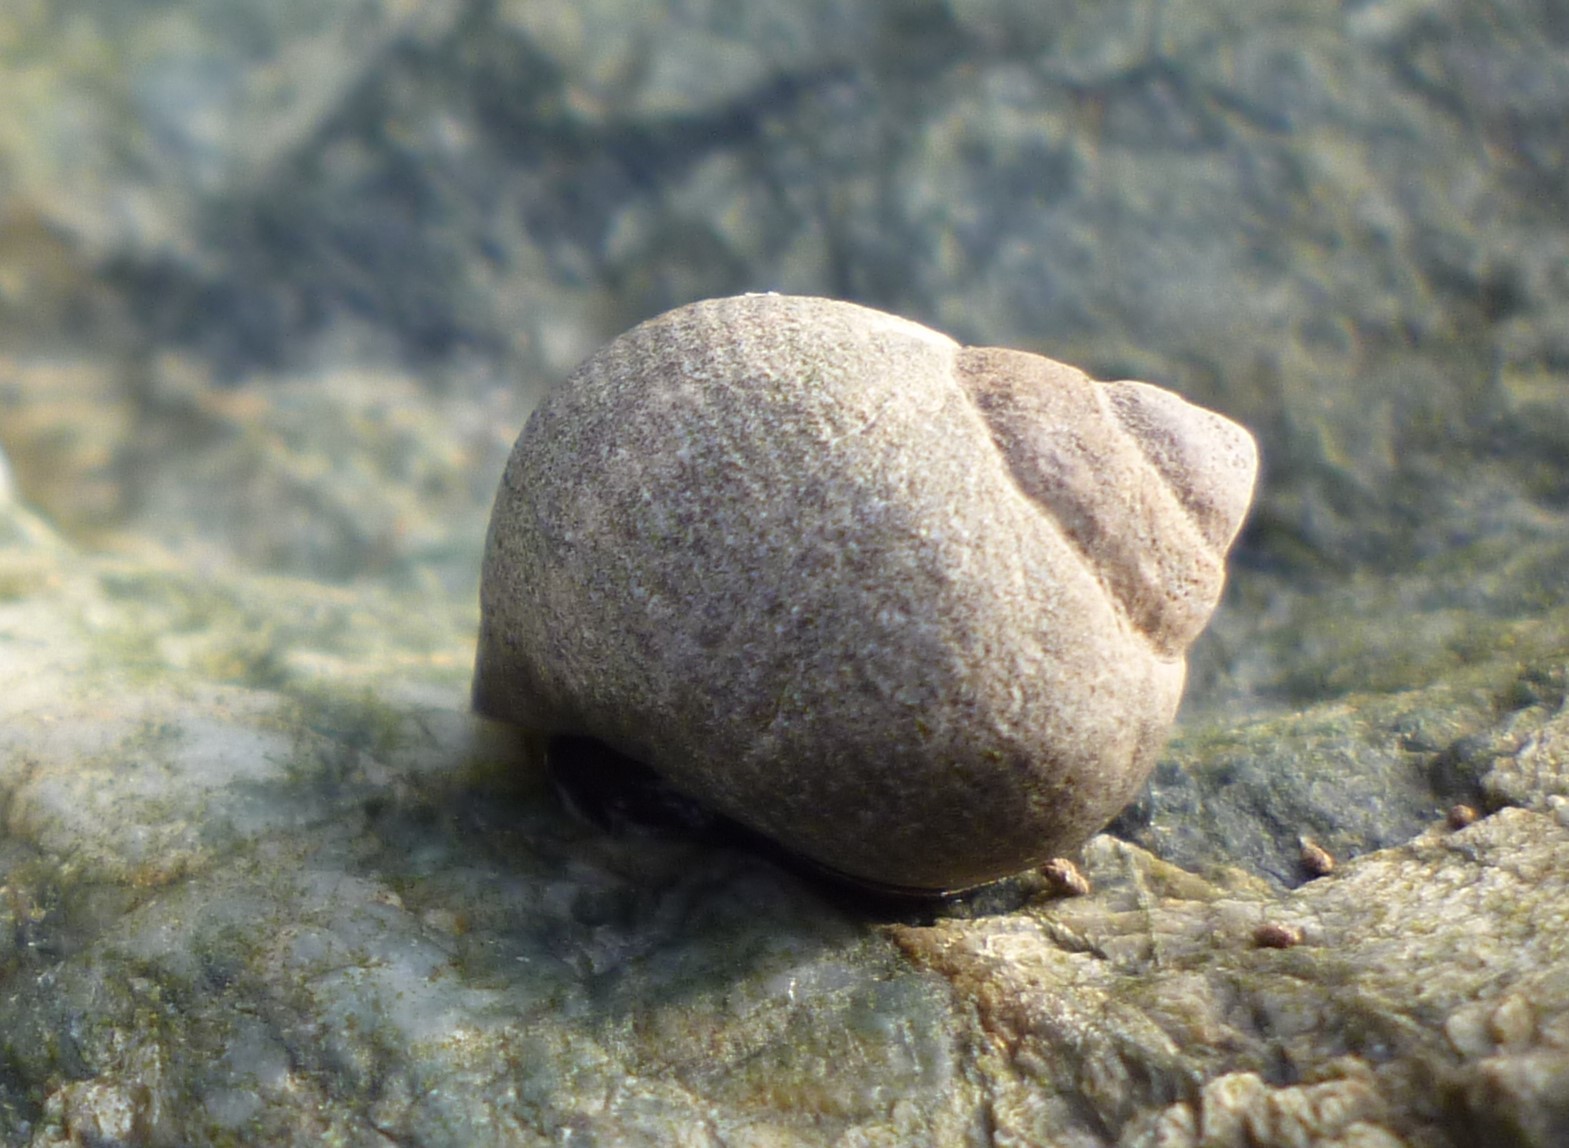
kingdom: Animalia
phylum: Mollusca
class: Gastropoda
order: Littorinimorpha
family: Littorinidae
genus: Littorina
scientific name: Littorina littorea
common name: Common periwinkle
